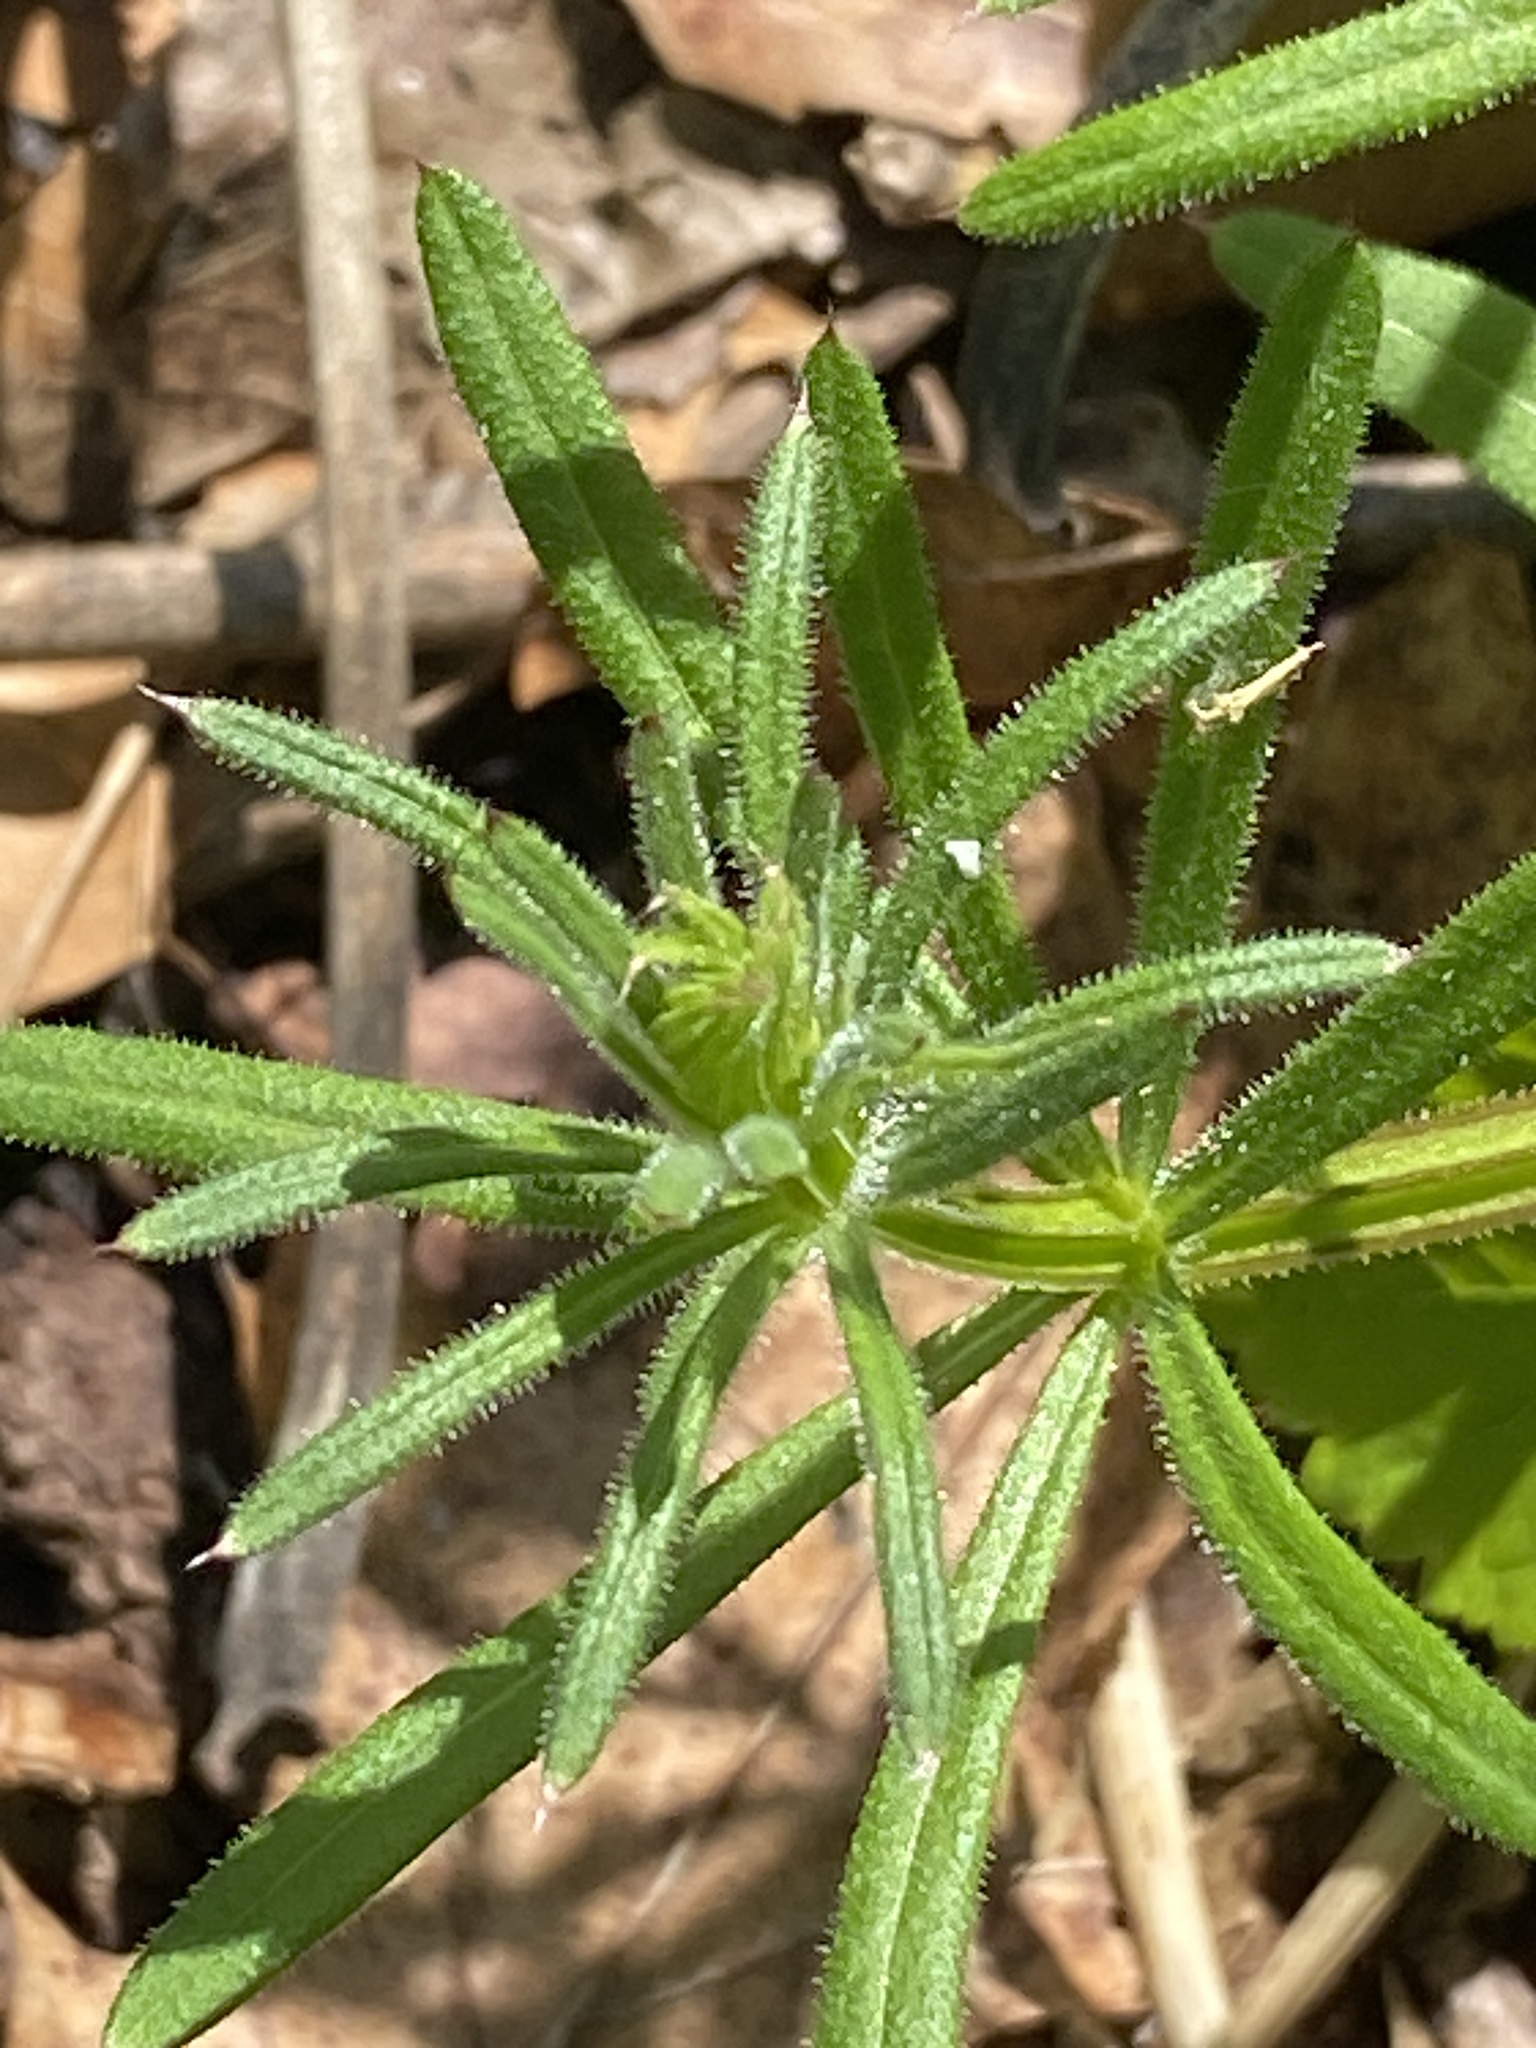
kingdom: Plantae
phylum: Tracheophyta
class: Magnoliopsida
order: Gentianales
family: Rubiaceae
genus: Galium
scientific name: Galium aparine
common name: Cleavers
